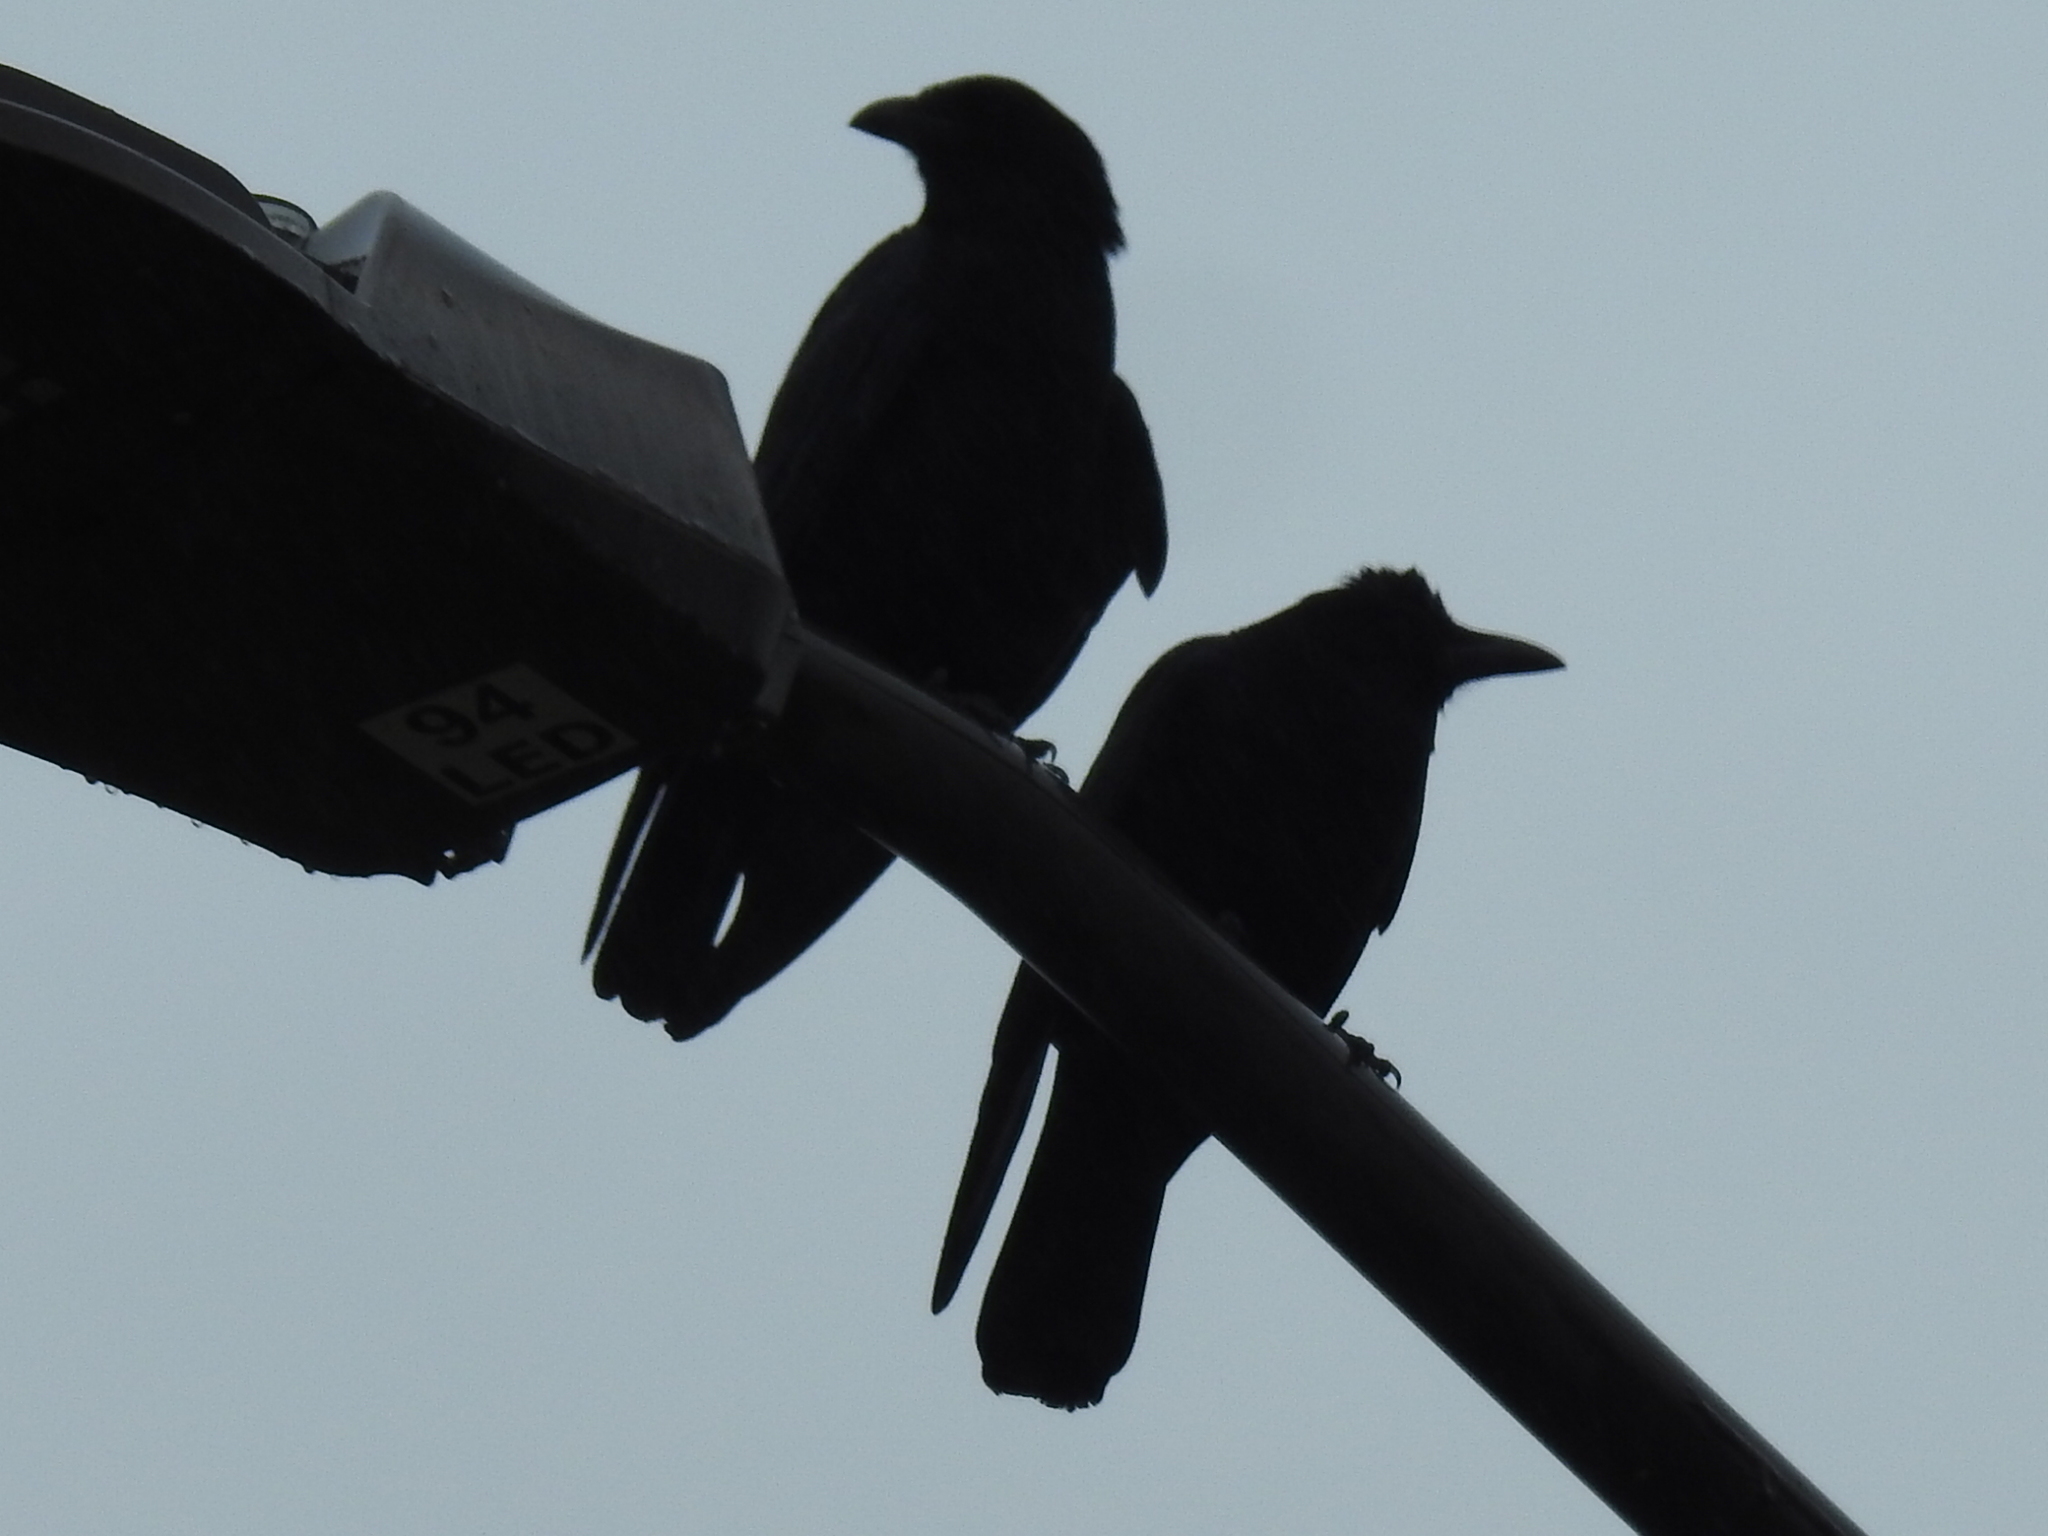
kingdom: Animalia
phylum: Chordata
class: Aves
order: Passeriformes
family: Corvidae
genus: Corvus
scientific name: Corvus brachyrhynchos
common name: American crow
